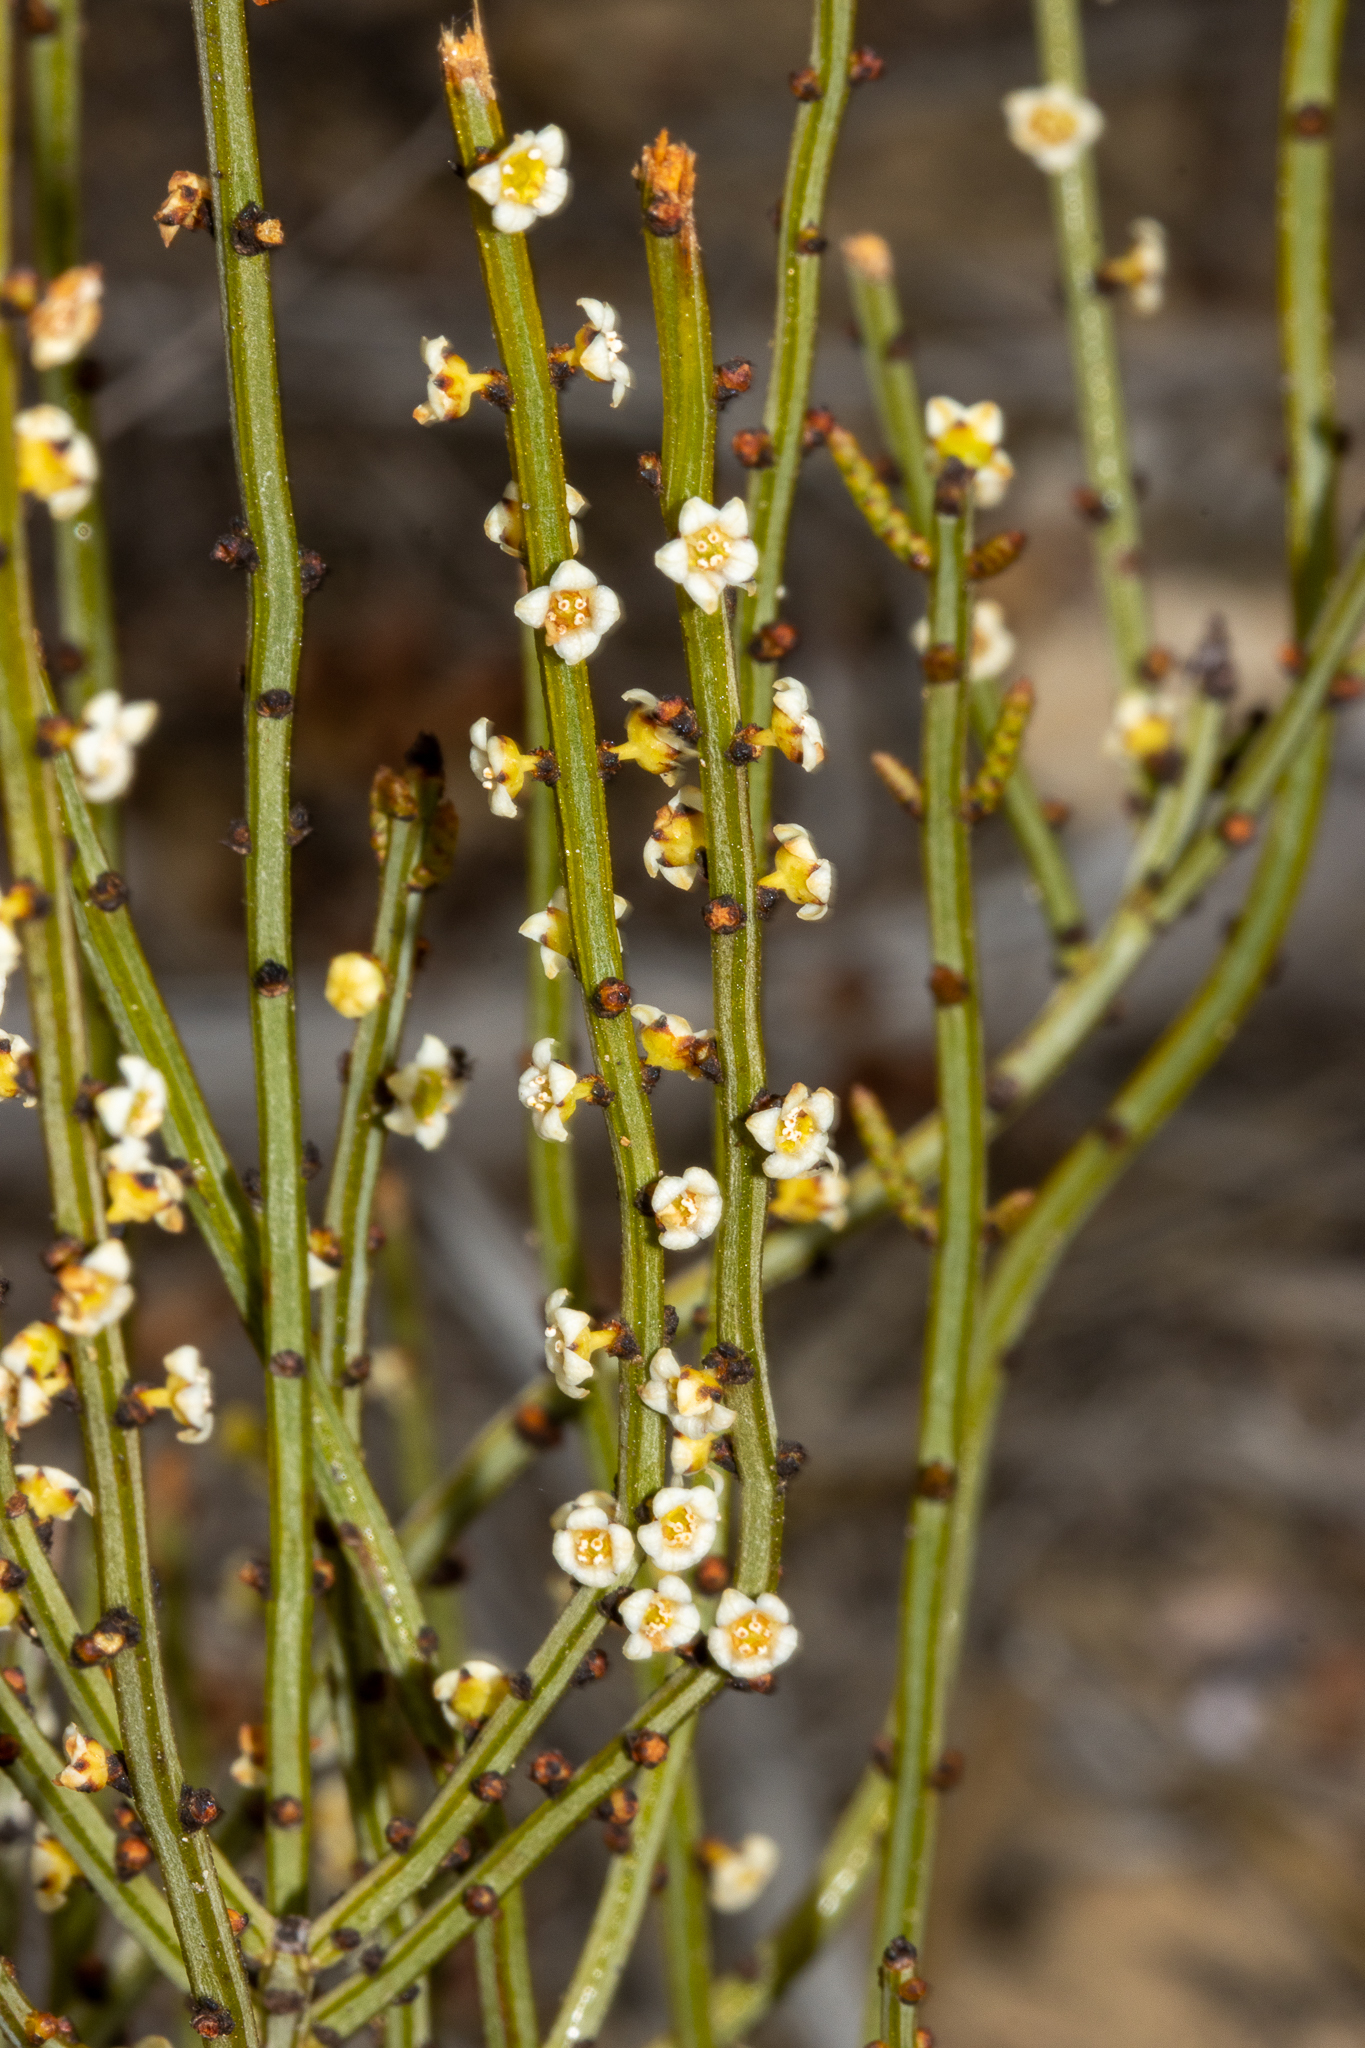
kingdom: Plantae
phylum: Tracheophyta
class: Magnoliopsida
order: Celastrales
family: Celastraceae
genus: Psammomoya
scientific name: Psammomoya choretroides
